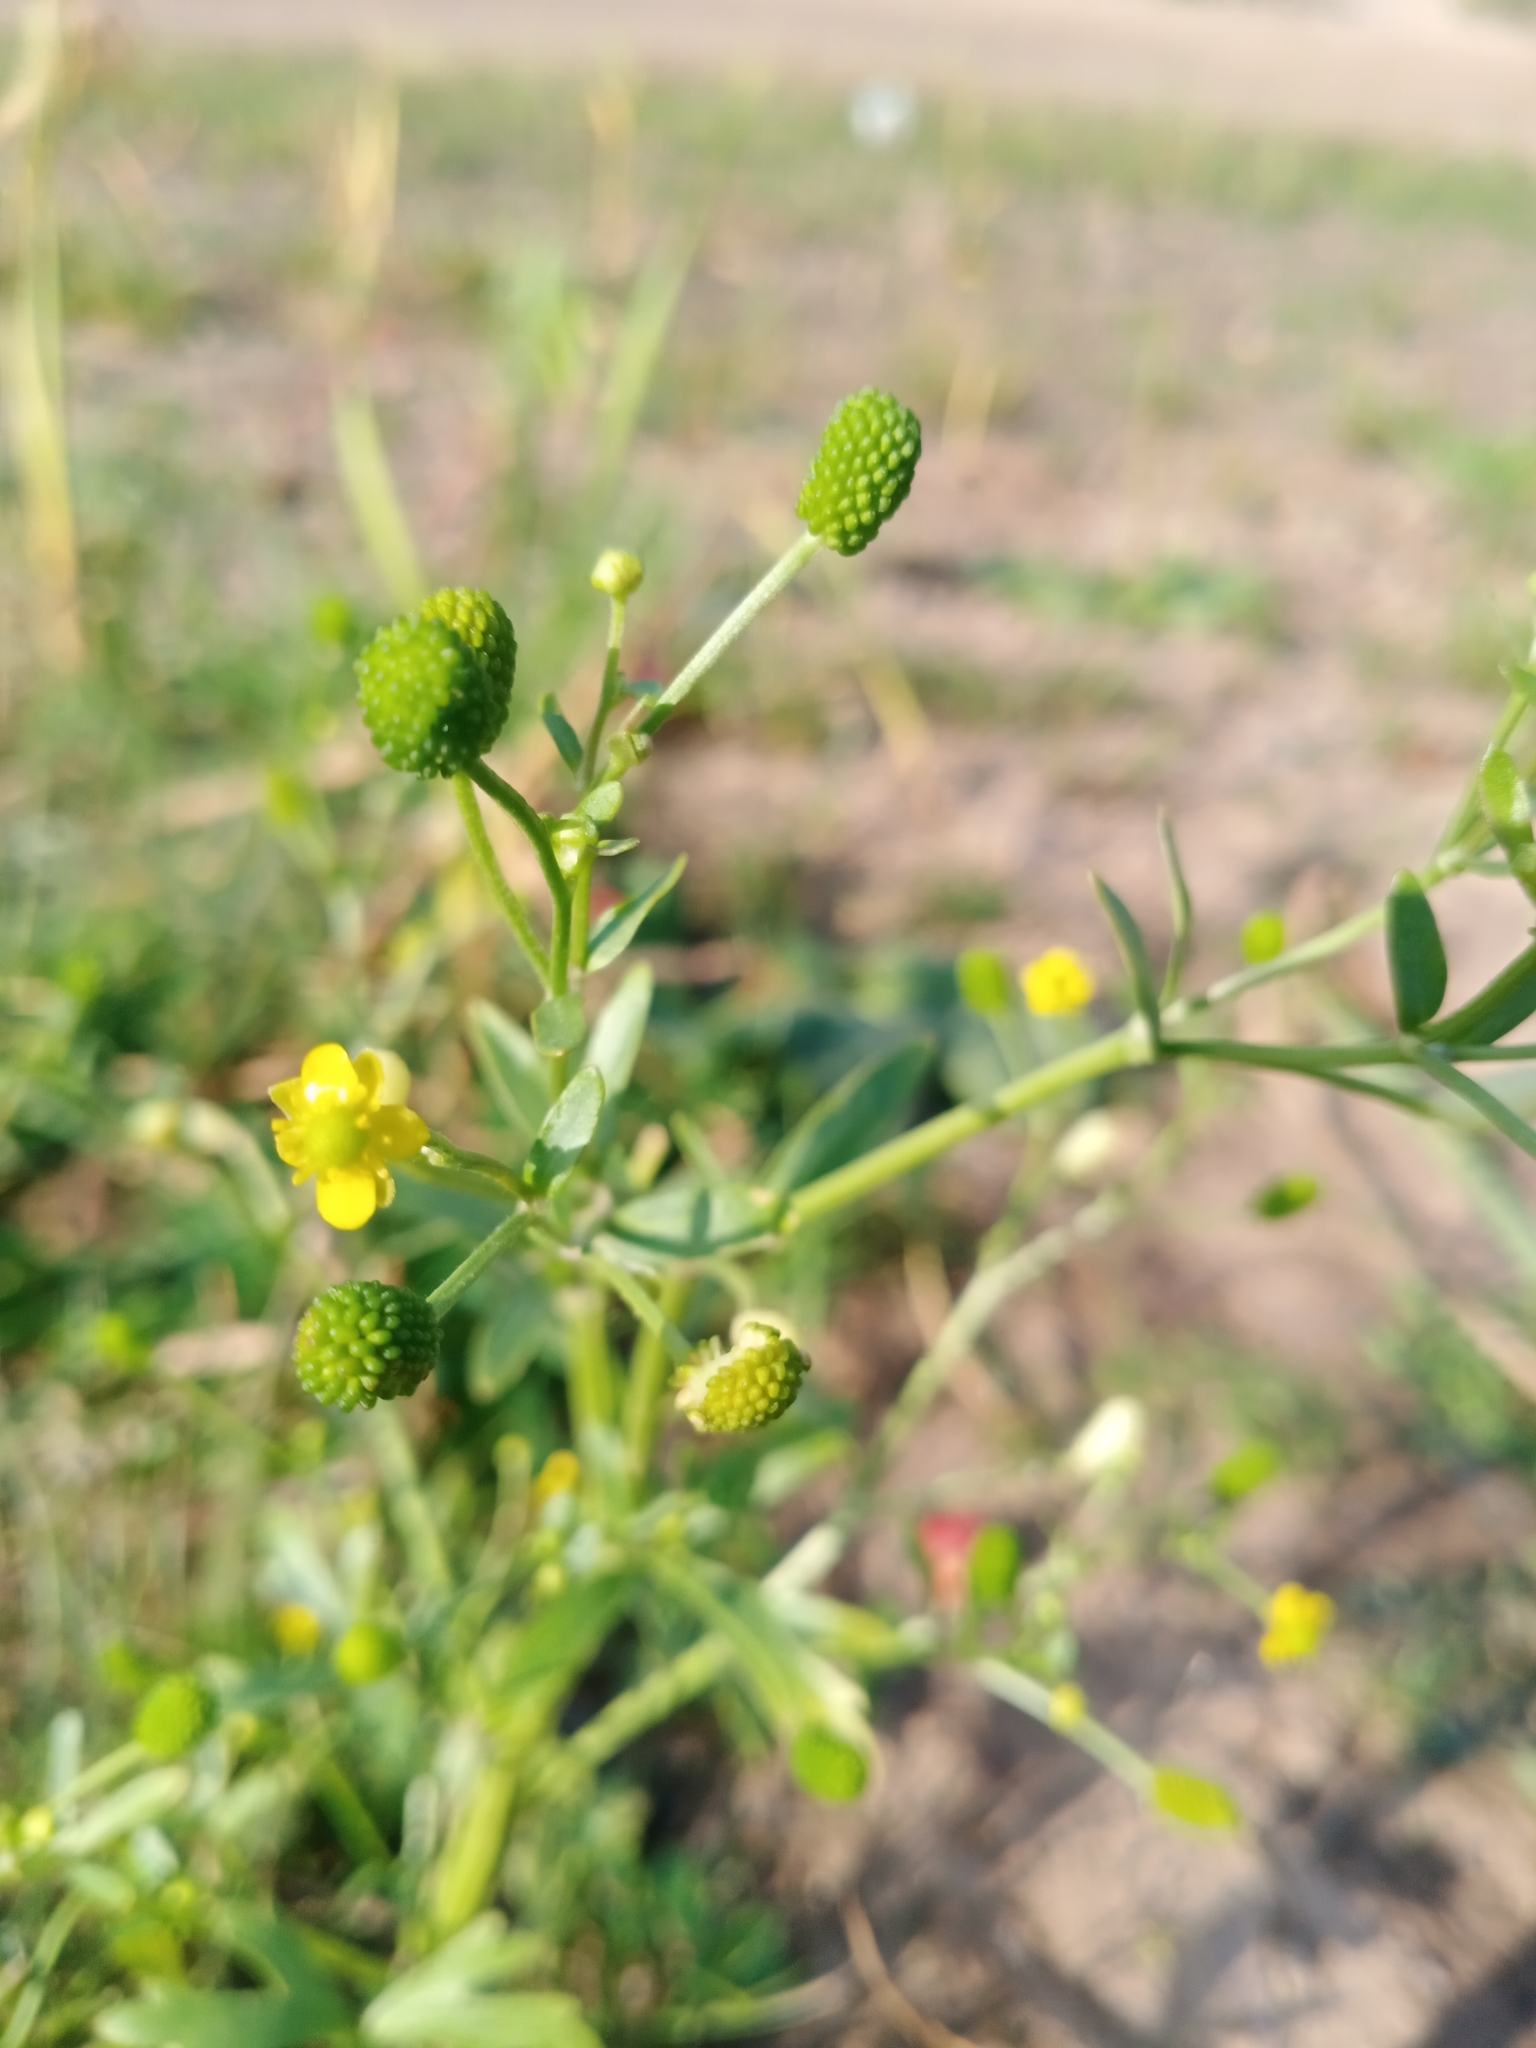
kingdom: Plantae
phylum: Tracheophyta
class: Magnoliopsida
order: Ranunculales
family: Ranunculaceae
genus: Ranunculus
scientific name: Ranunculus sceleratus
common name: Celery-leaved buttercup
